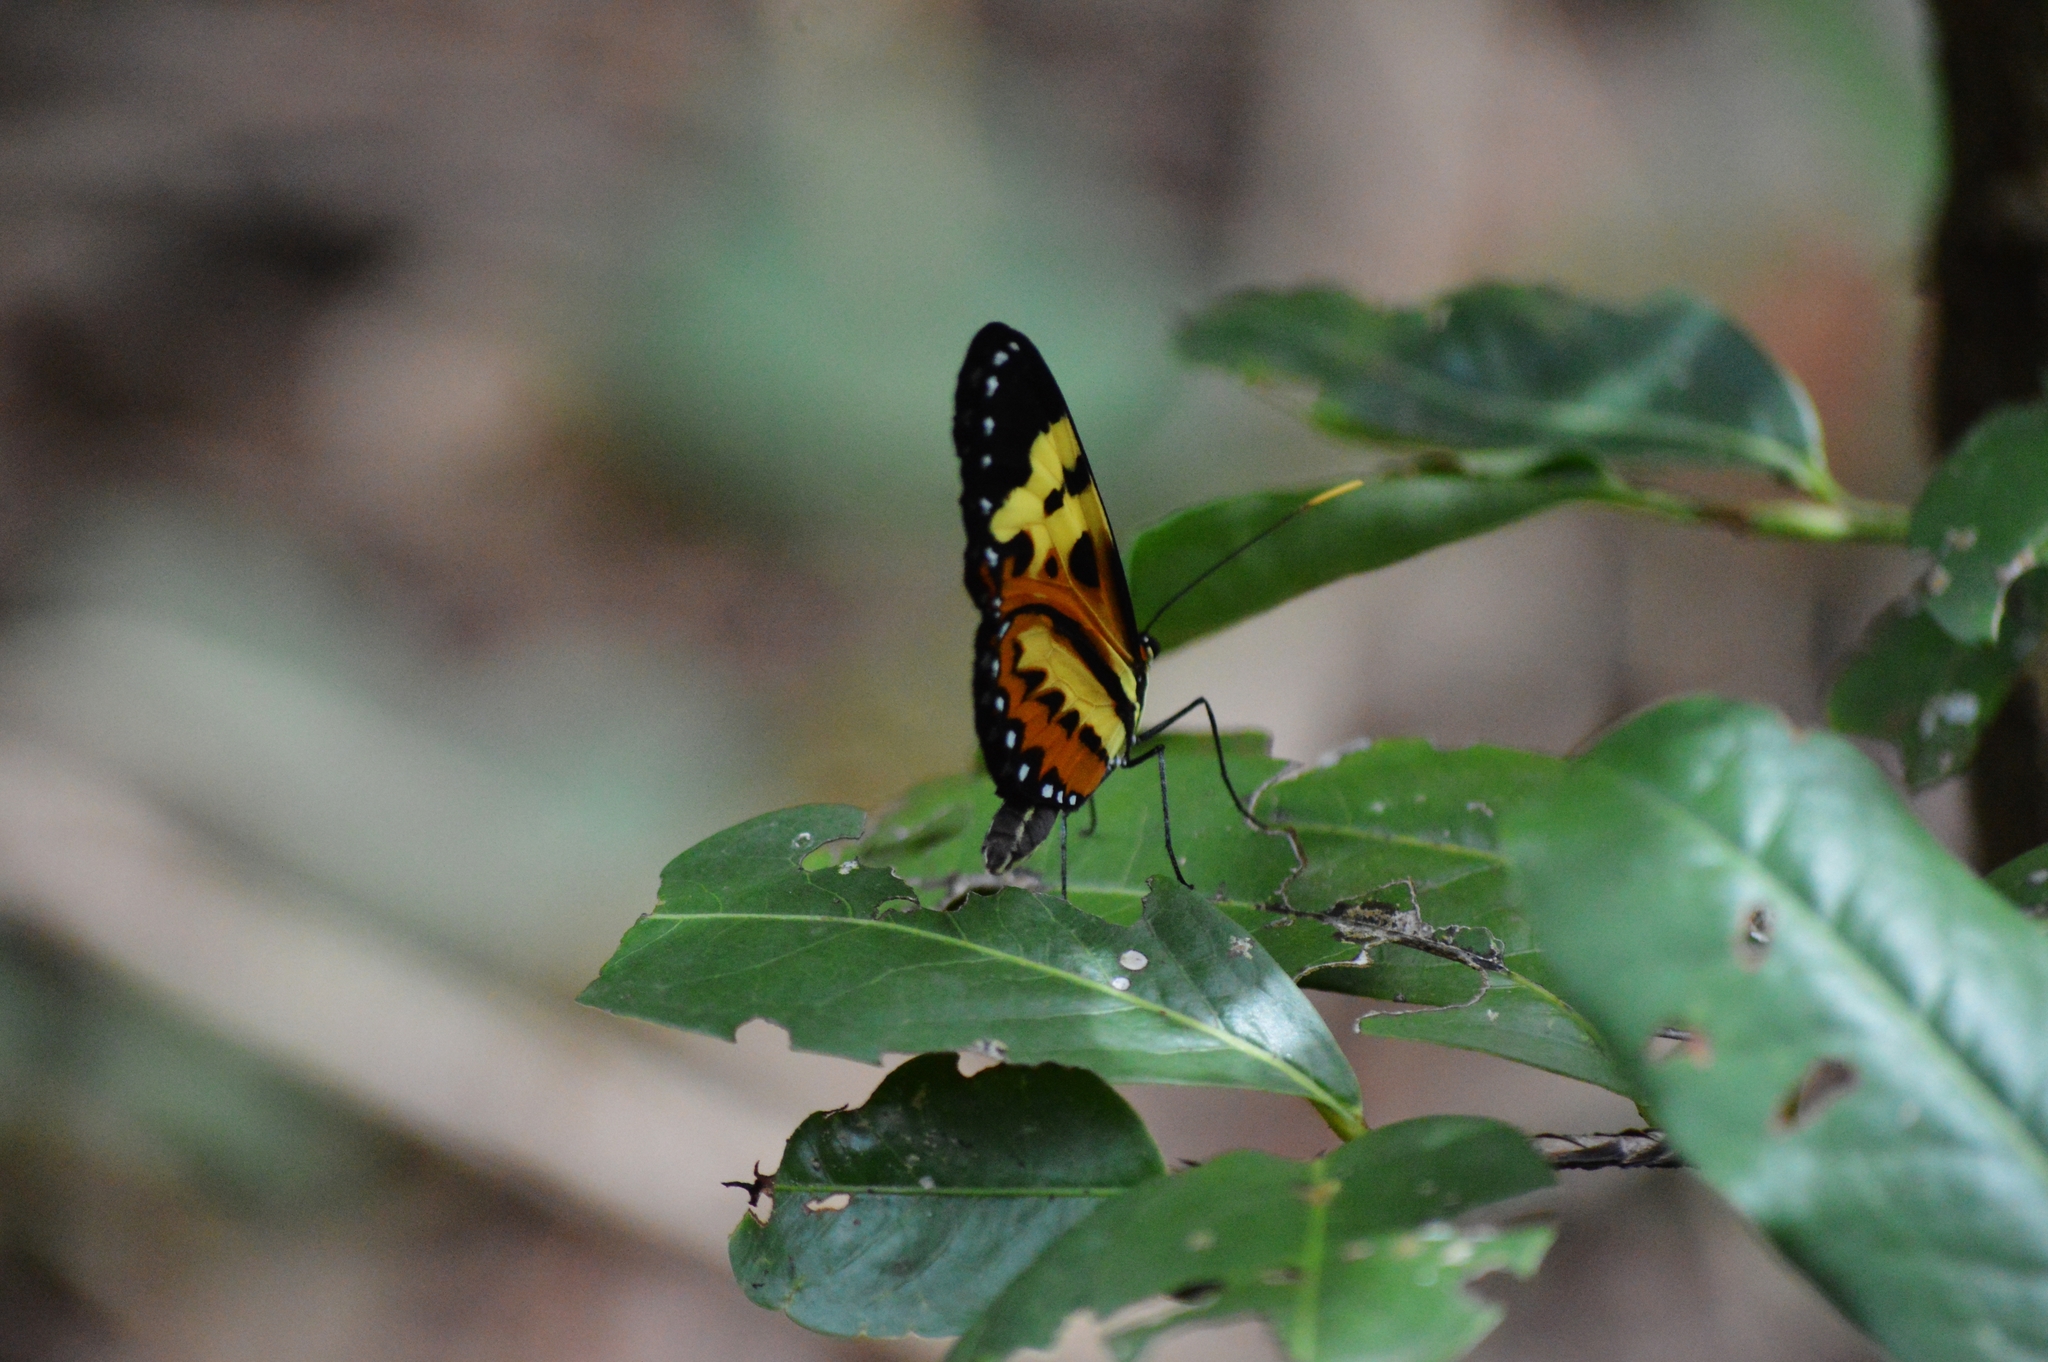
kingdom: Animalia
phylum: Arthropoda
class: Insecta
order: Lepidoptera
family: Nymphalidae
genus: Mechanitis
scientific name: Mechanitis polymnia
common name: Disturbed tigerwing
